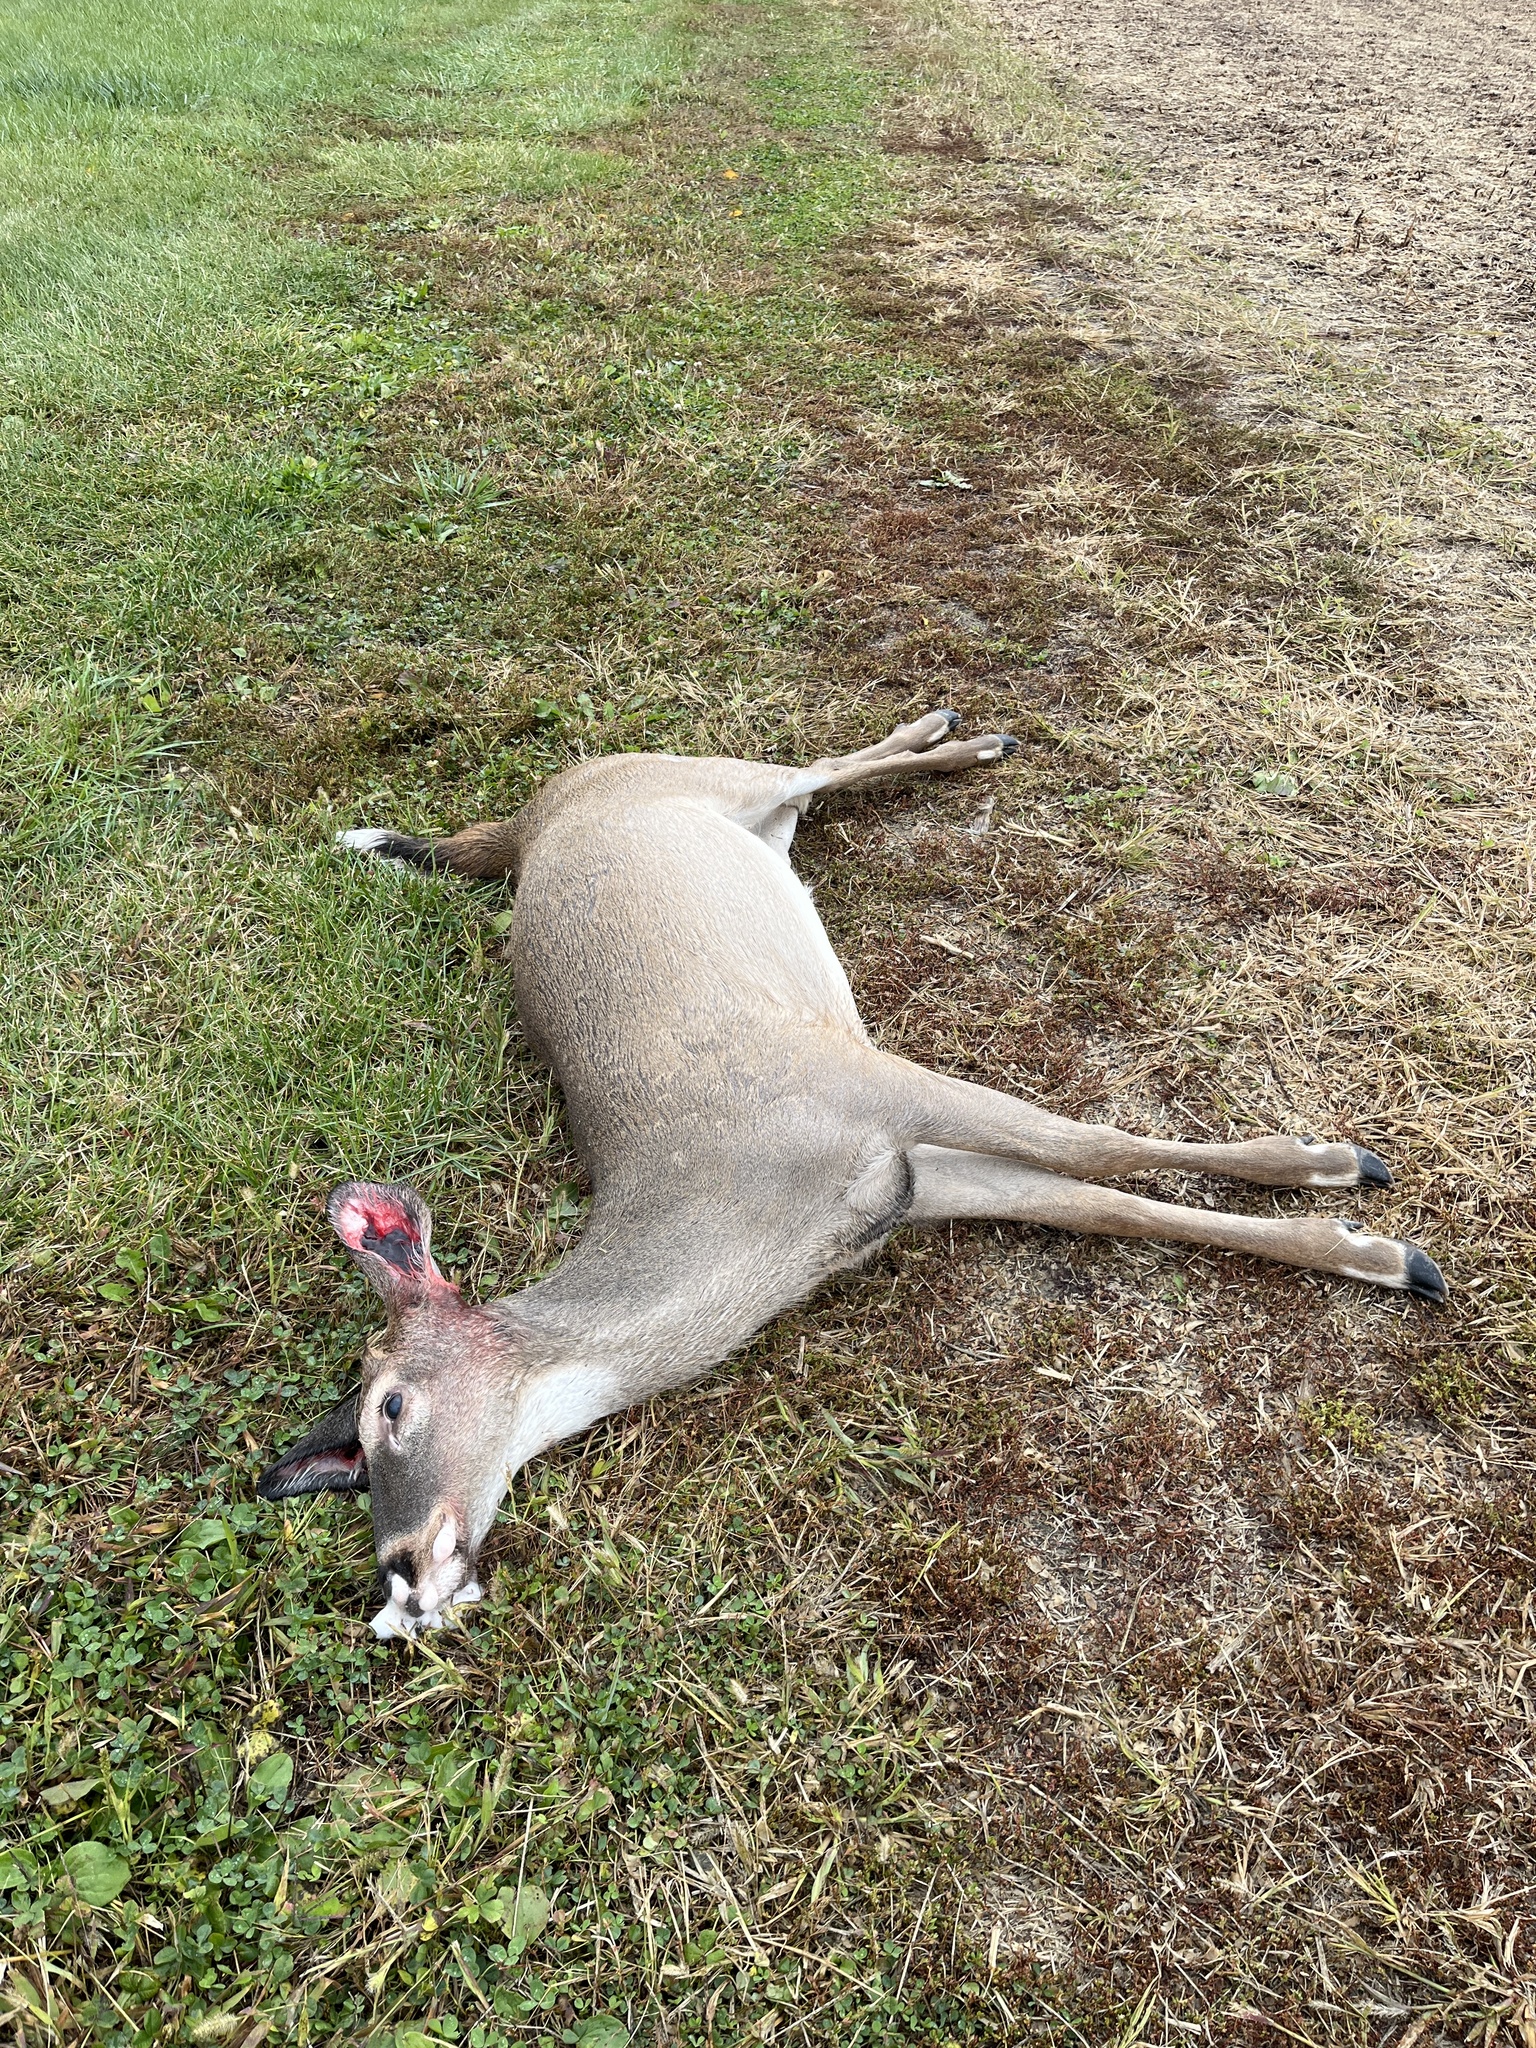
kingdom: Animalia
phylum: Chordata
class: Mammalia
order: Artiodactyla
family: Cervidae
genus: Odocoileus
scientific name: Odocoileus virginianus
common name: White-tailed deer
